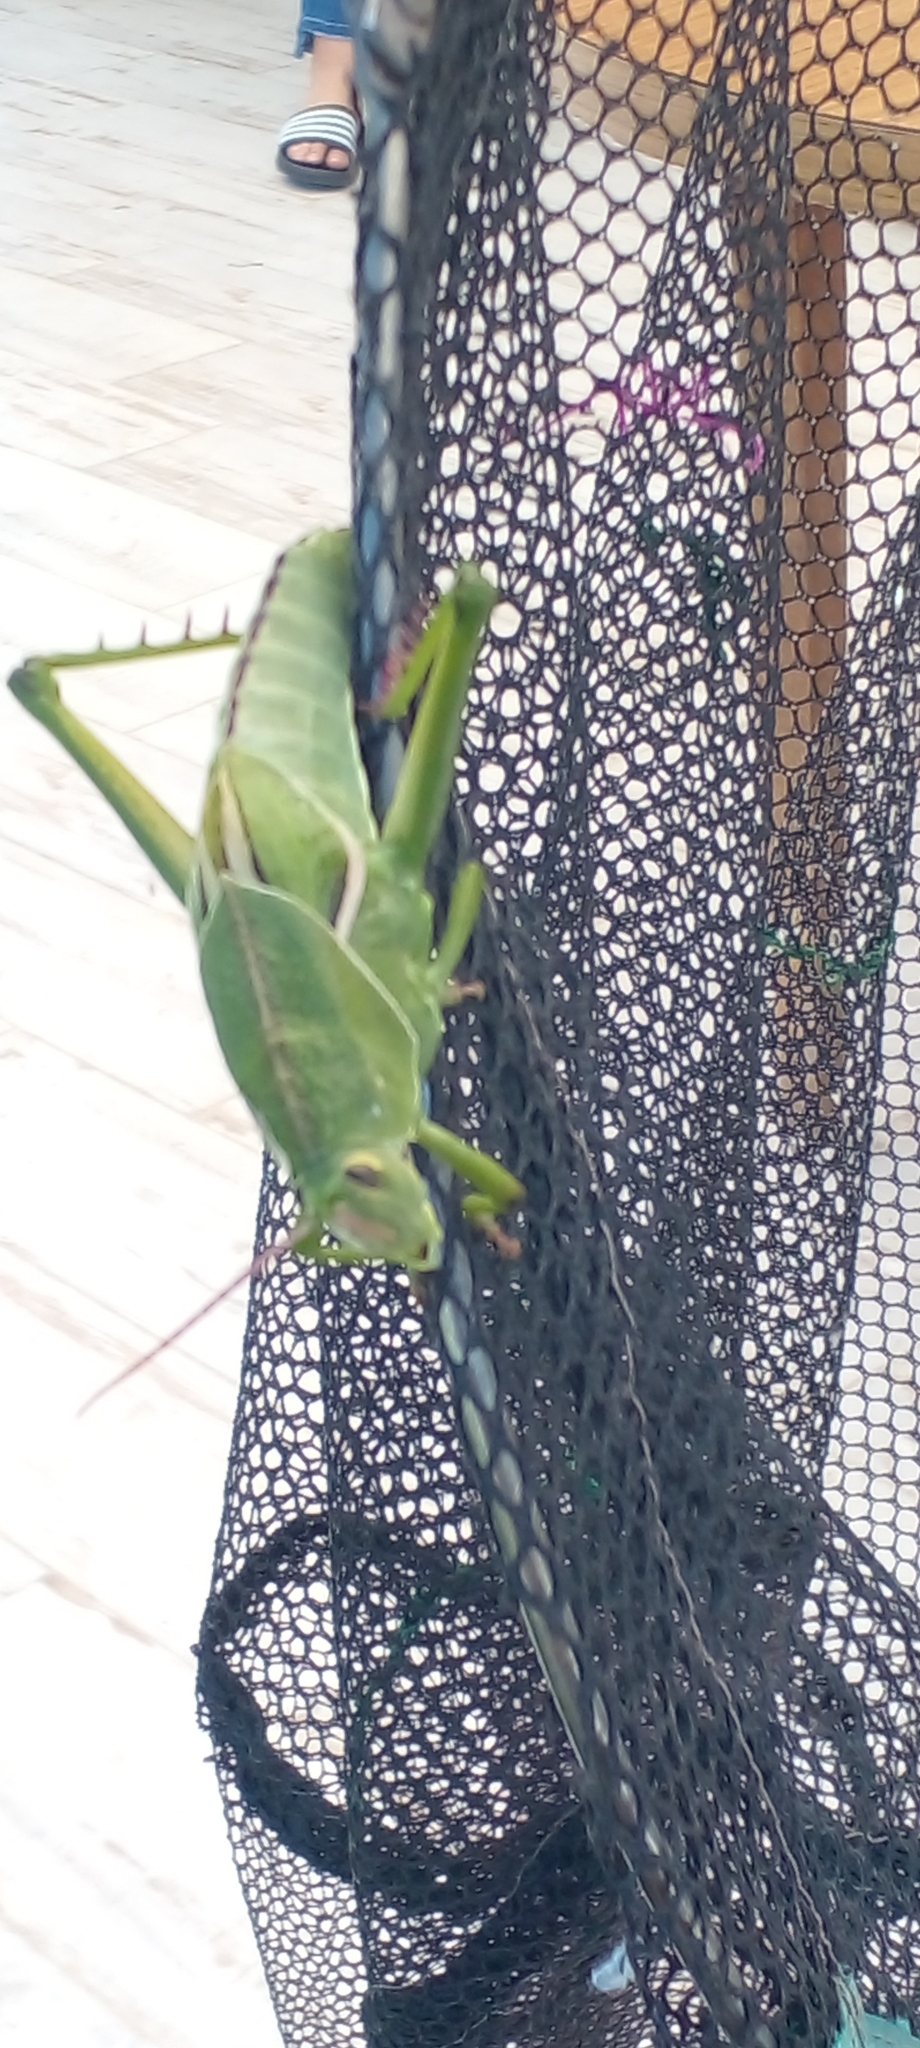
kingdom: Animalia
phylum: Arthropoda
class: Insecta
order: Orthoptera
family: Romaleidae
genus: Staleochlora
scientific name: Staleochlora viridicata
